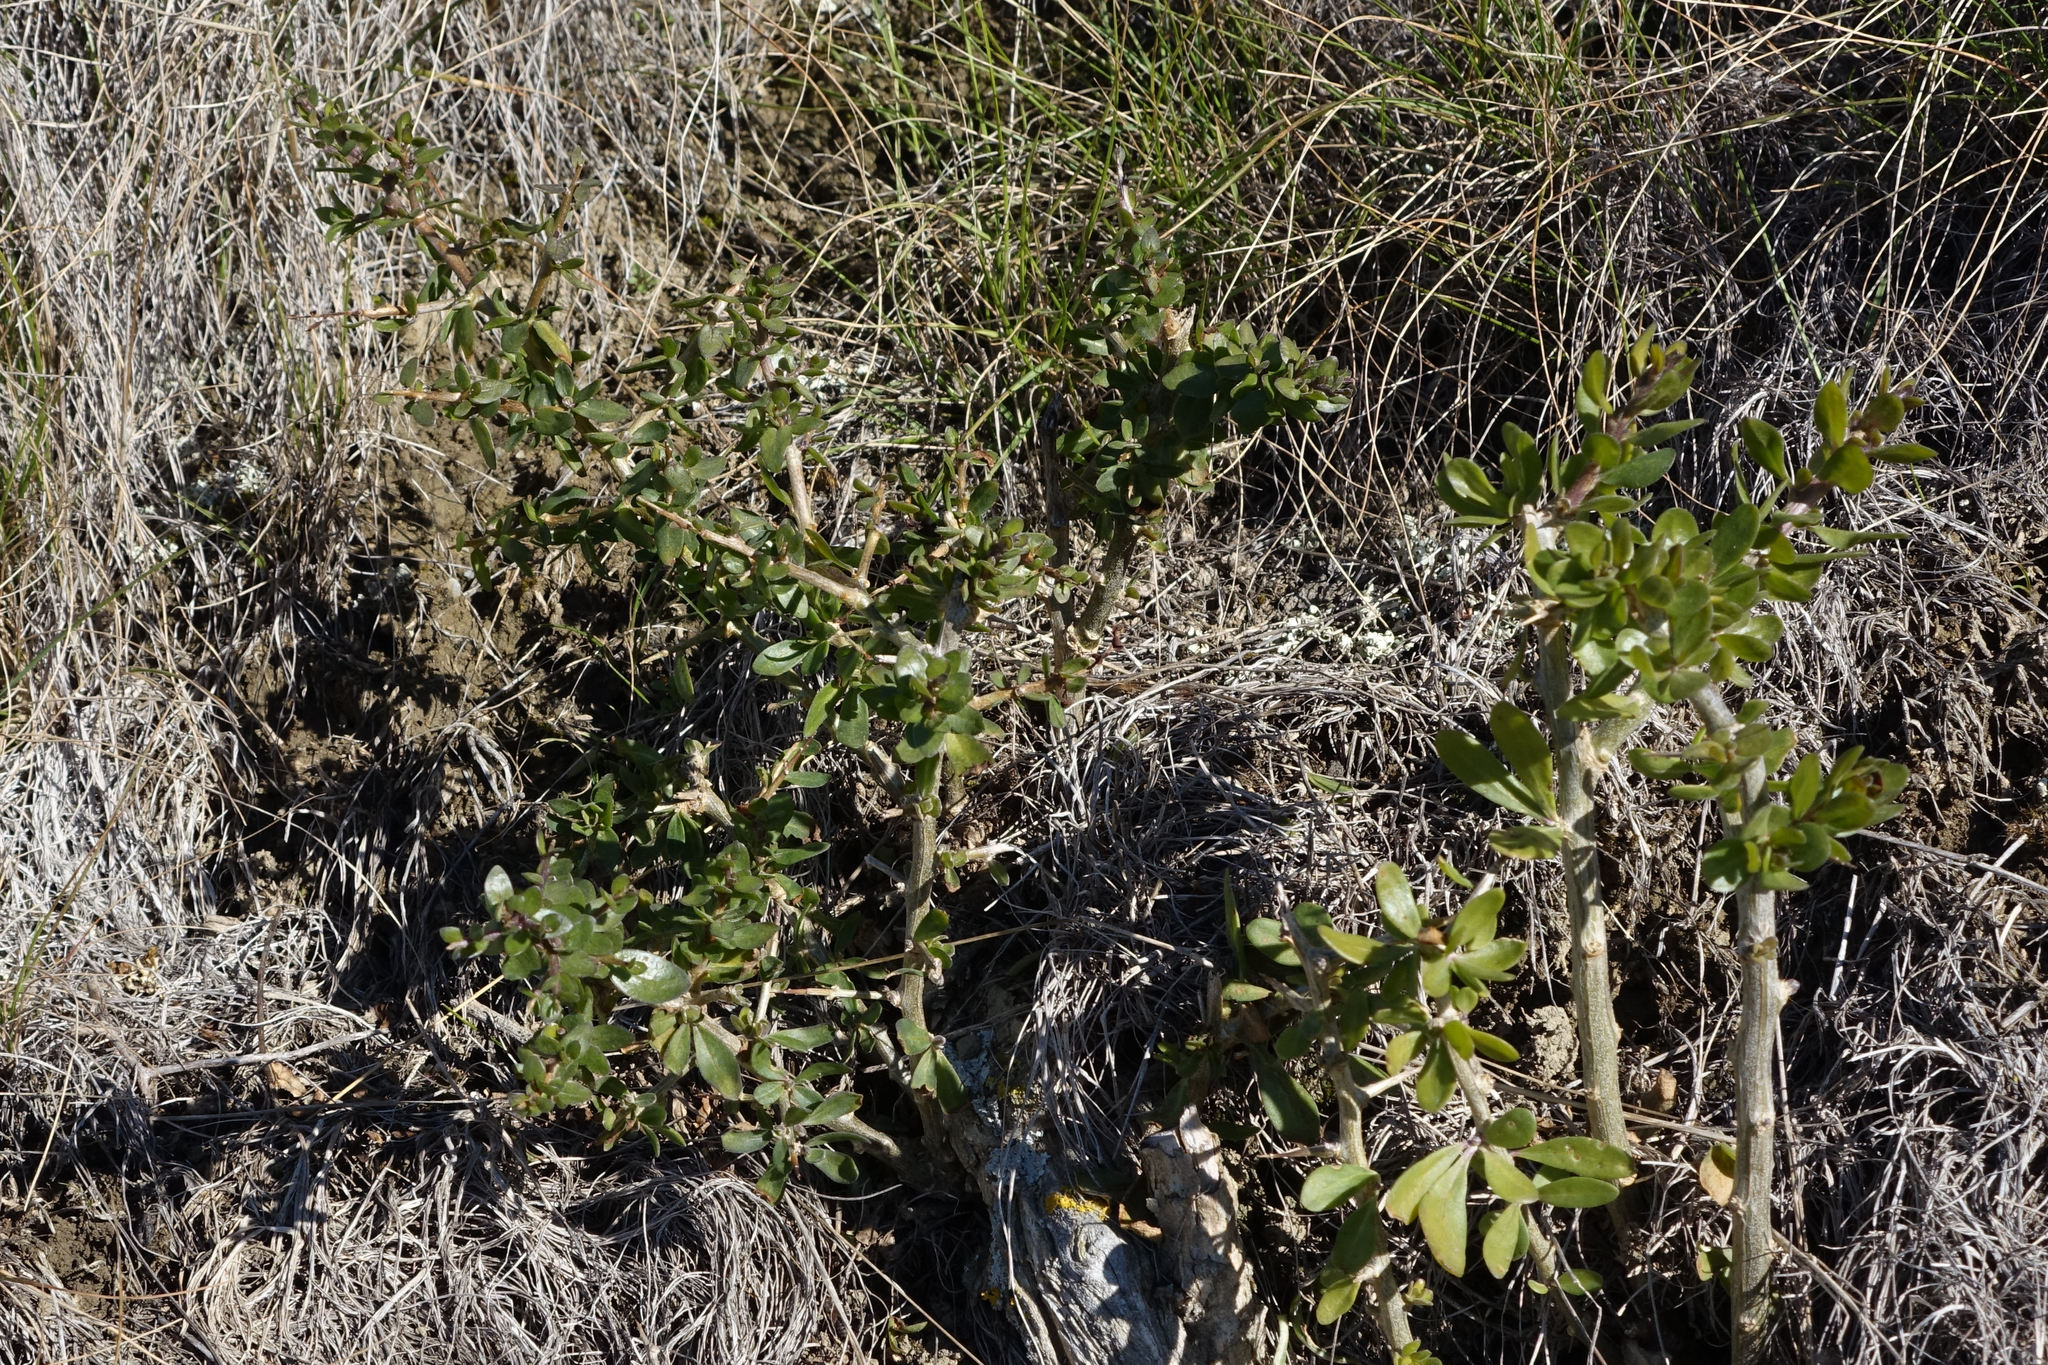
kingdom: Plantae
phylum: Tracheophyta
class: Magnoliopsida
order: Solanales
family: Solanaceae
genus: Lycium
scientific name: Lycium ferocissimum
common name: African boxthorn
